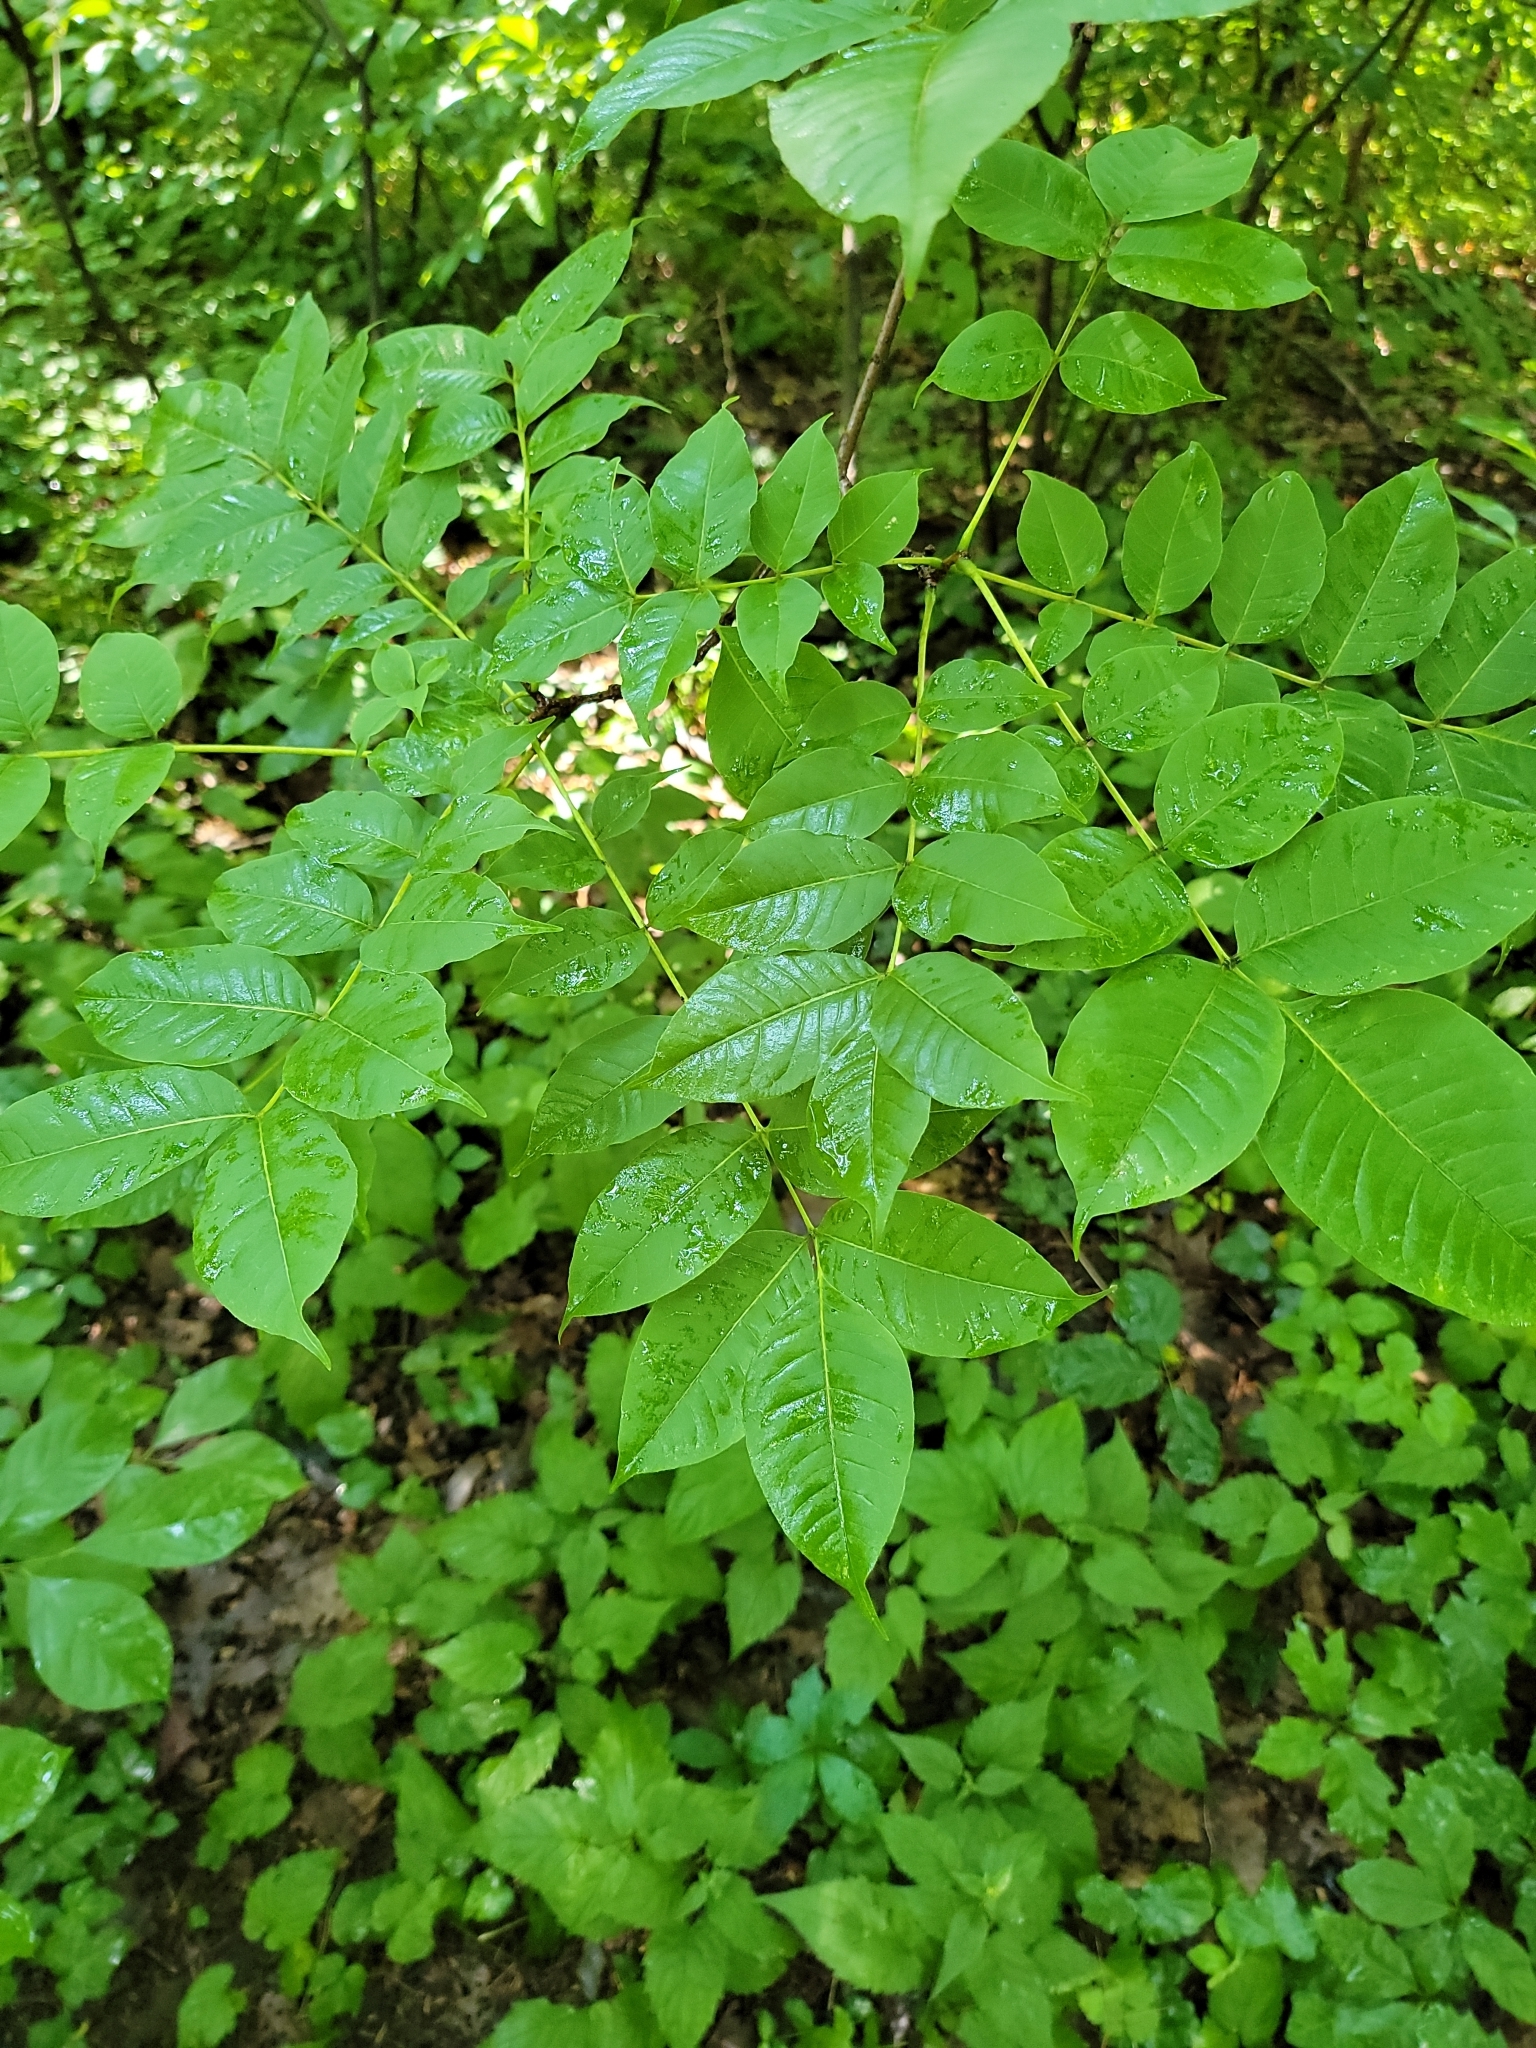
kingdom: Plantae
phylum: Tracheophyta
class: Magnoliopsida
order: Sapindales
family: Rutaceae
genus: Phellodendron
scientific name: Phellodendron amurense
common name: Amur corktree
